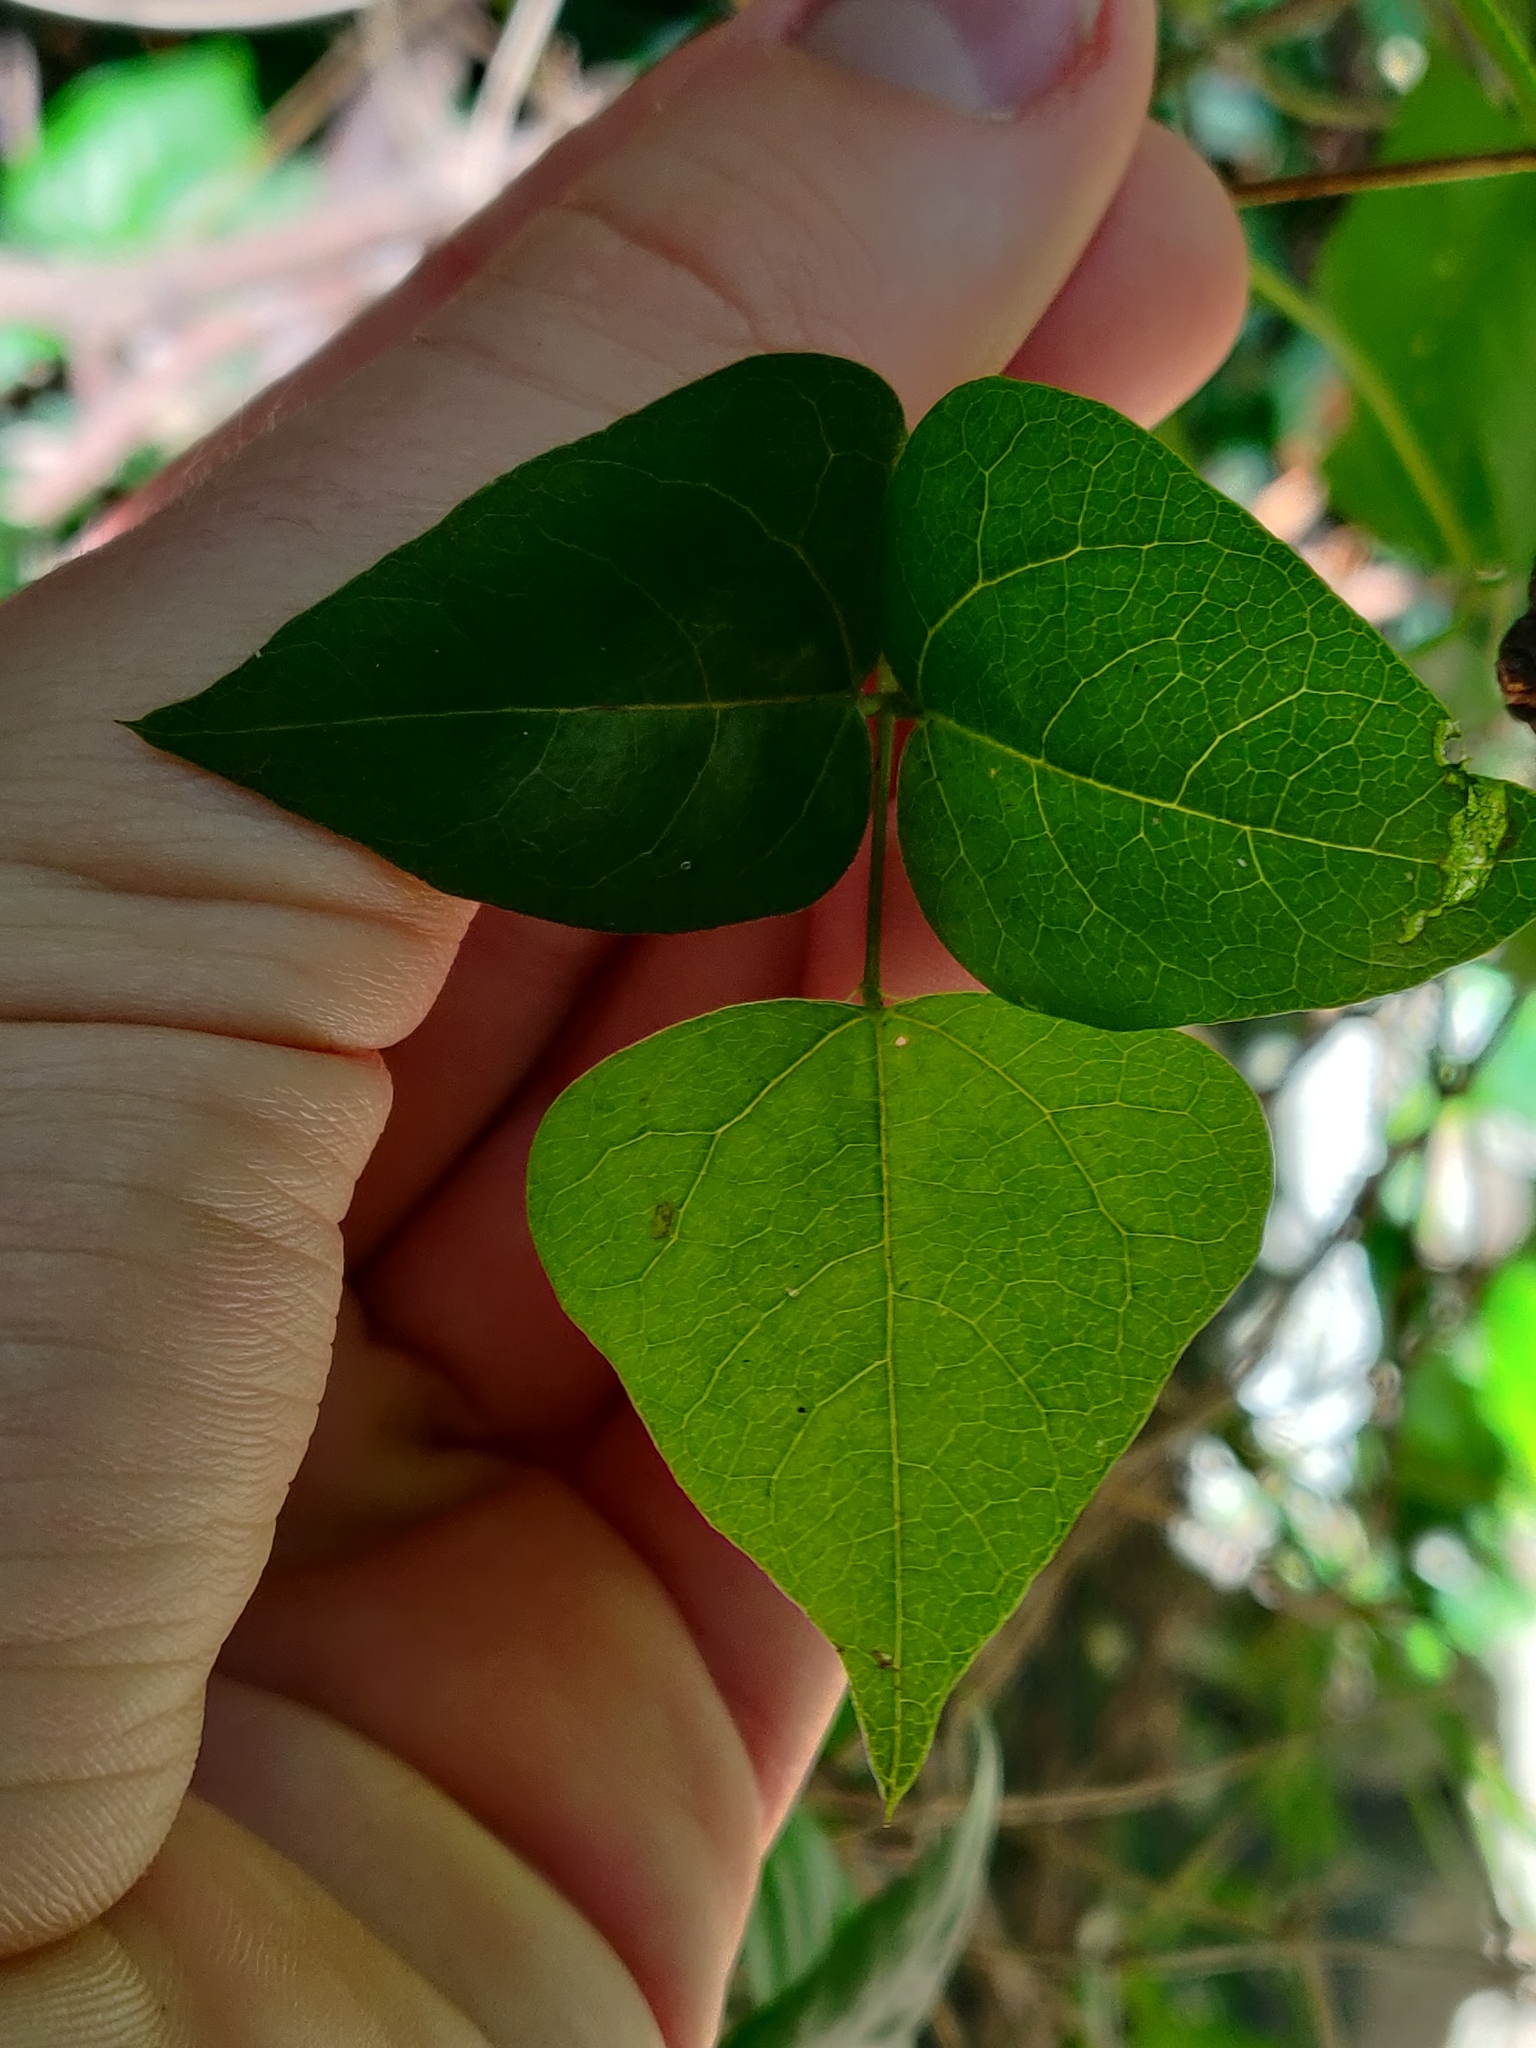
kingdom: Plantae
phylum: Tracheophyta
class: Magnoliopsida
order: Fabales
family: Fabaceae
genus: Dipogon
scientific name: Dipogon lignosus
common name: Okie bean
